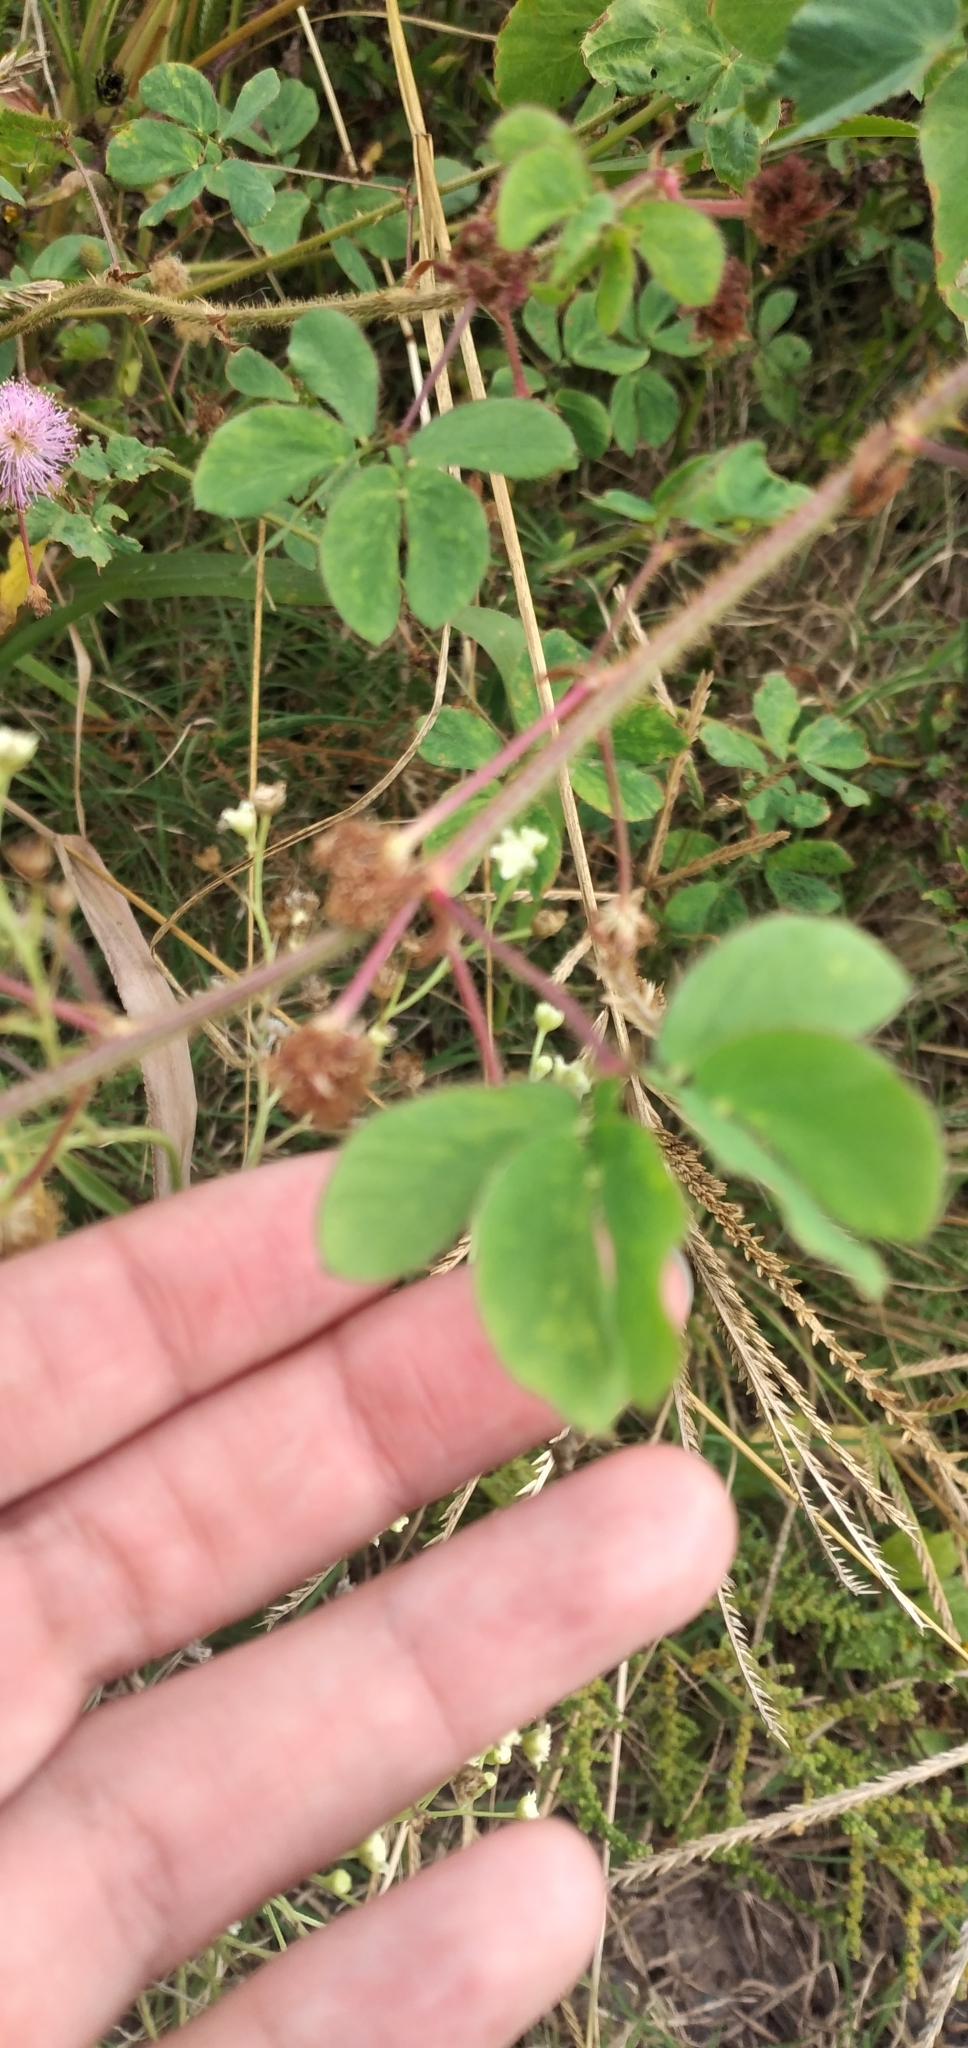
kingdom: Plantae
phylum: Tracheophyta
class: Magnoliopsida
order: Fabales
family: Fabaceae
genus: Mimosa
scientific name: Mimosa velloziana
